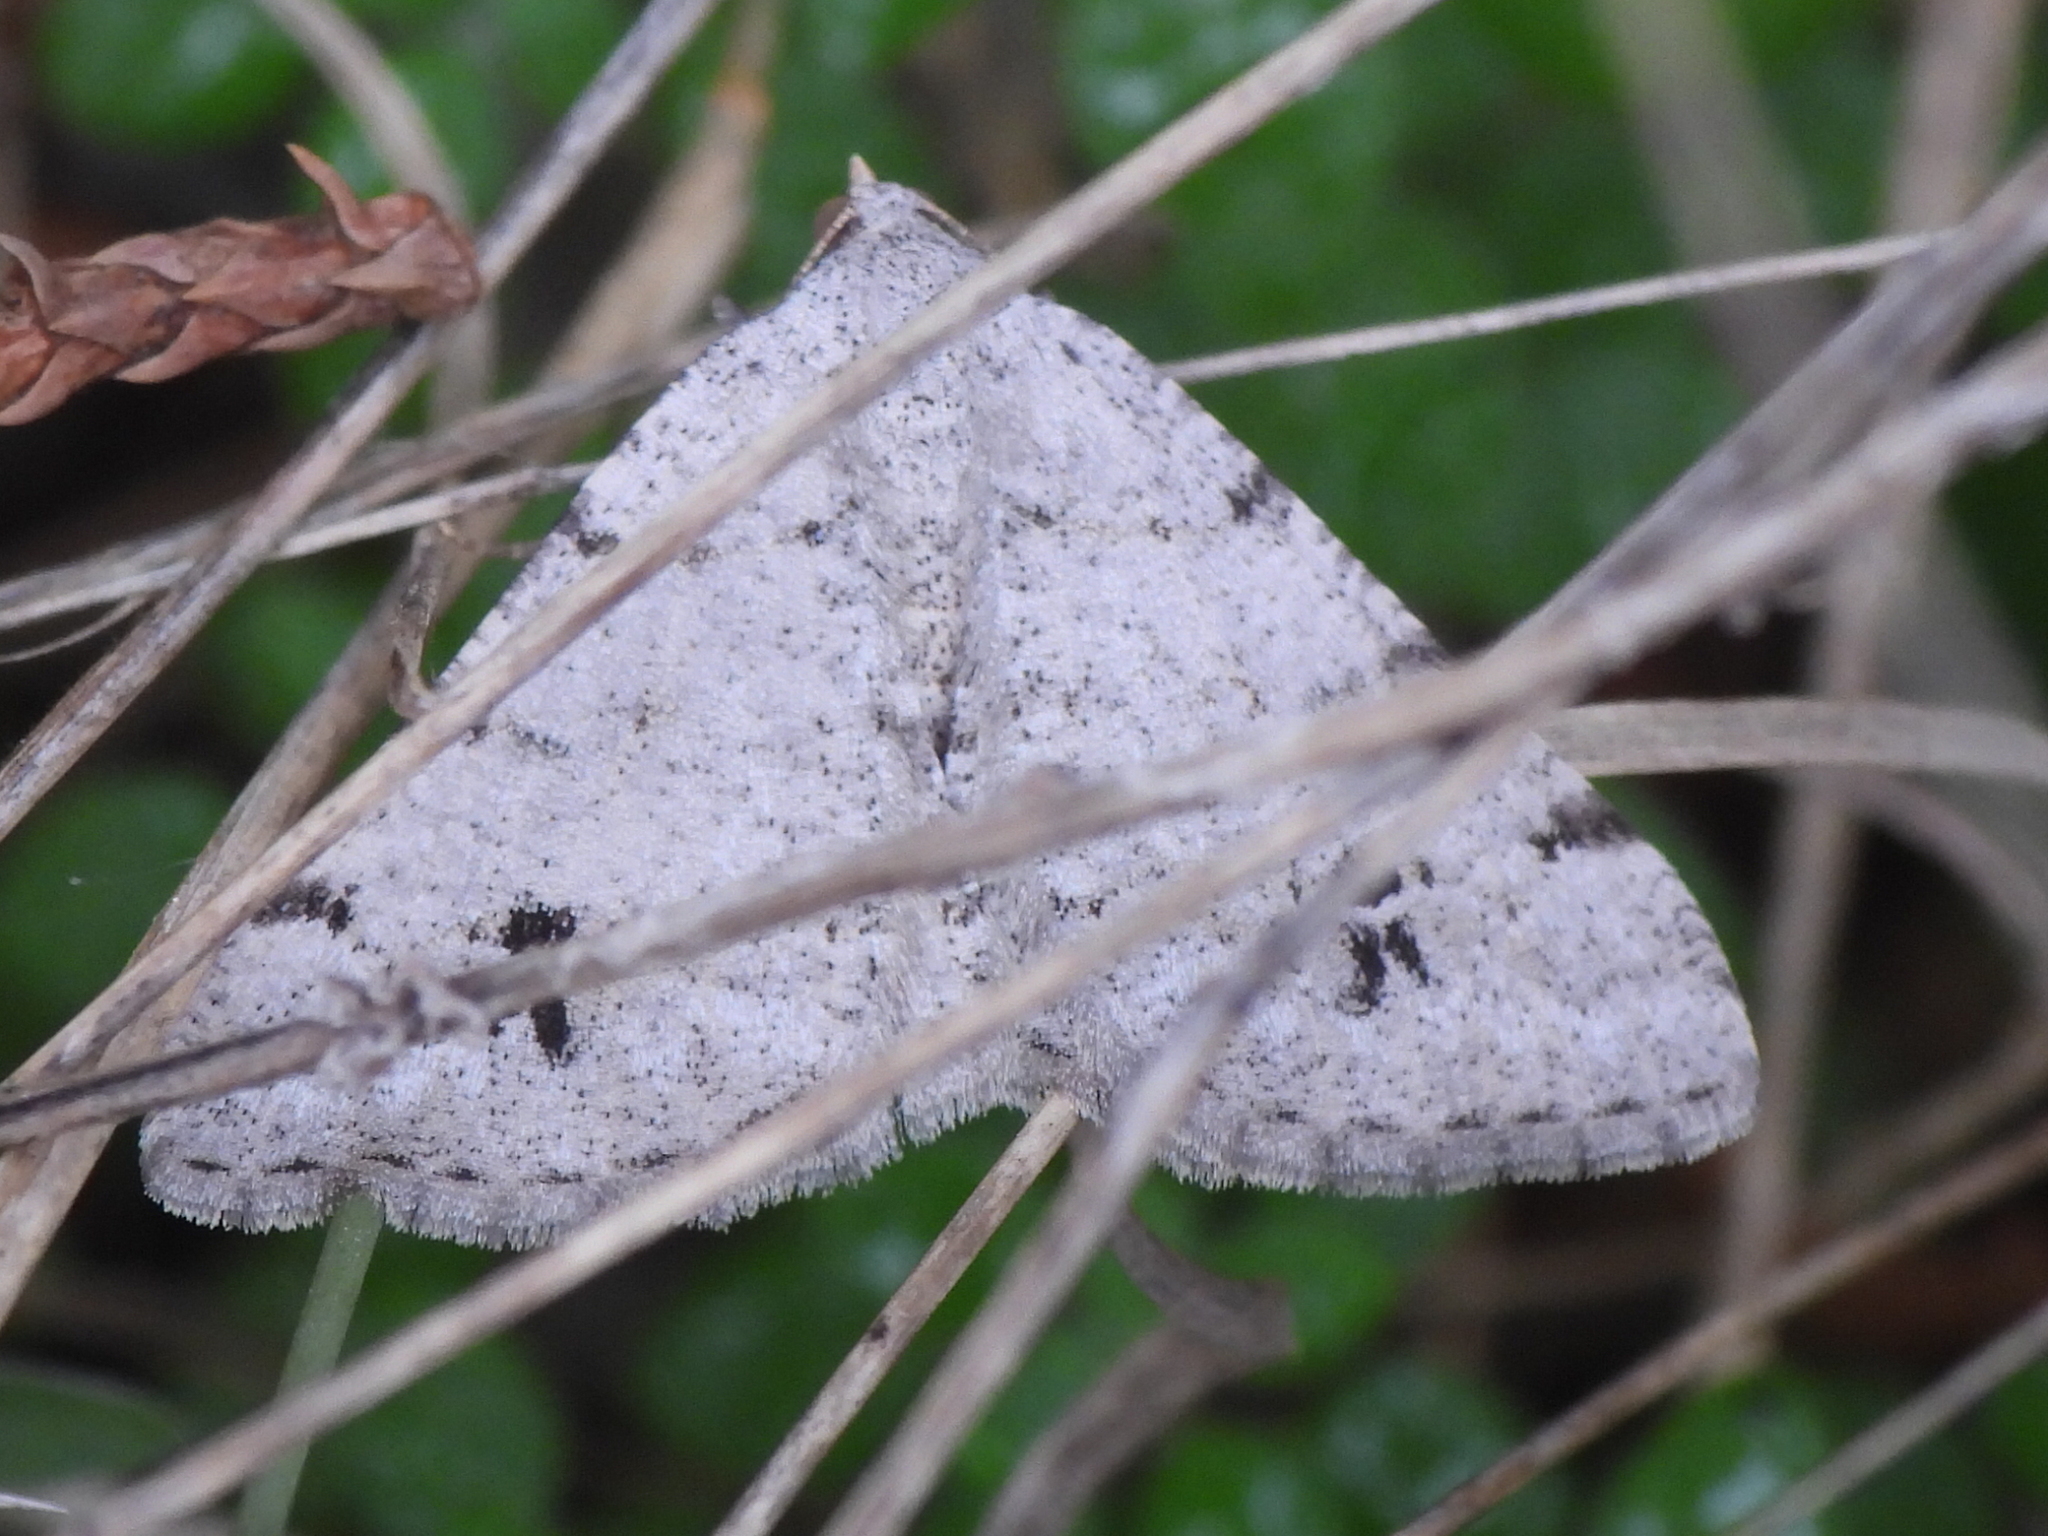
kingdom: Animalia
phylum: Arthropoda
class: Insecta
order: Lepidoptera
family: Geometridae
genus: Digrammia
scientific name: Digrammia pallidata
